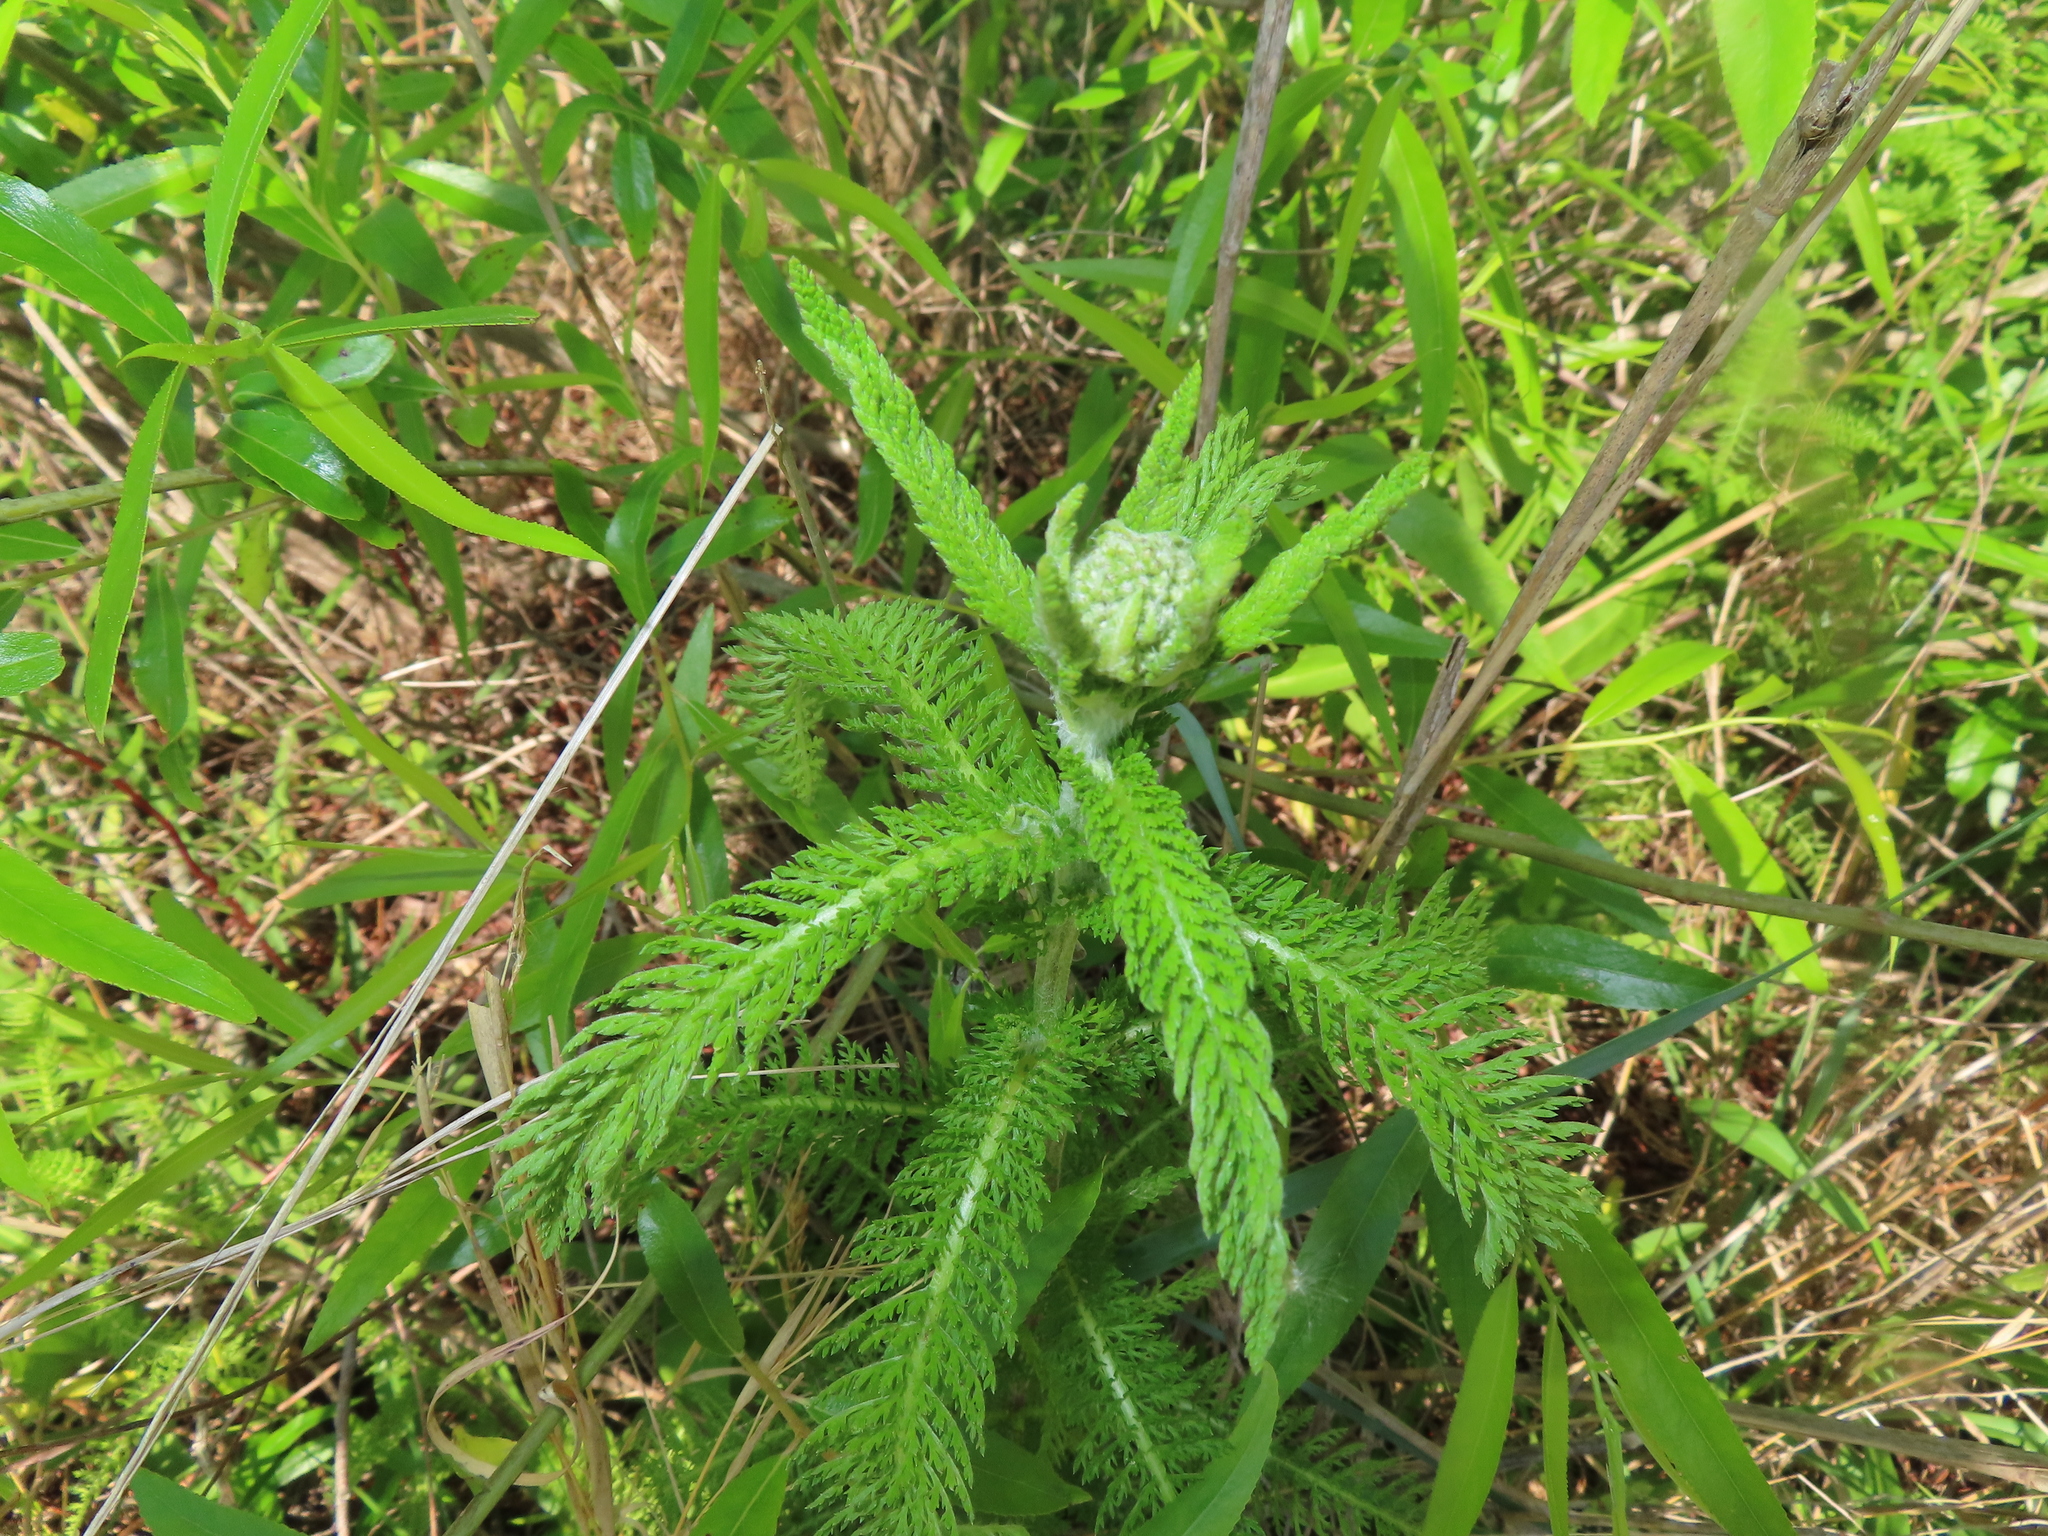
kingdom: Plantae
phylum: Tracheophyta
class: Magnoliopsida
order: Asterales
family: Asteraceae
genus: Achillea
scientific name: Achillea millefolium
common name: Yarrow
